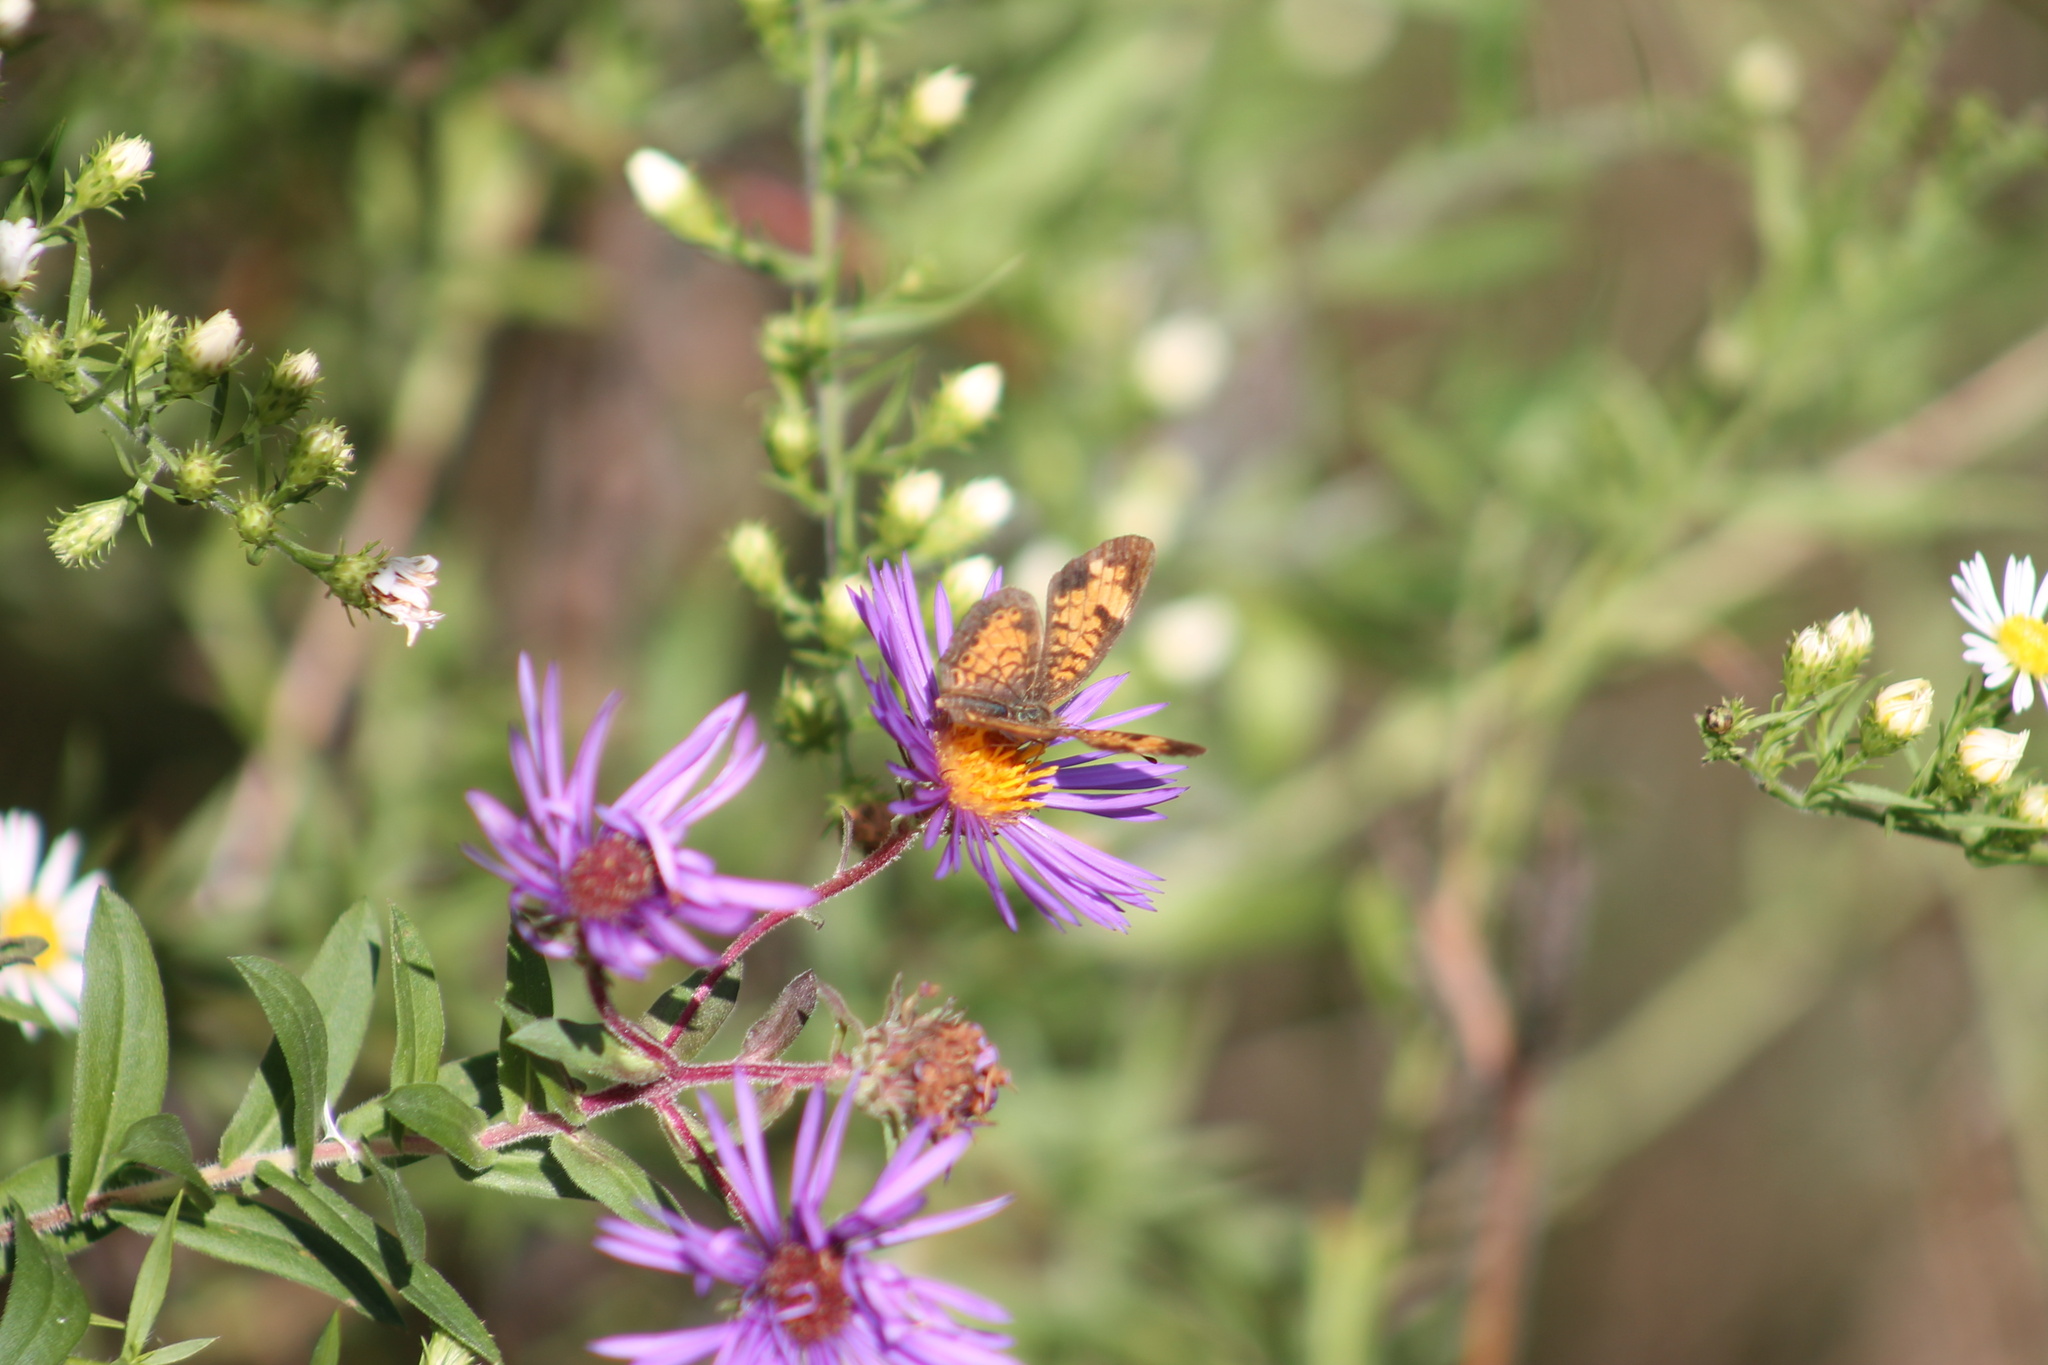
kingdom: Animalia
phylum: Arthropoda
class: Insecta
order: Lepidoptera
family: Nymphalidae
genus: Phyciodes
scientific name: Phyciodes tharos
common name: Pearl crescent
